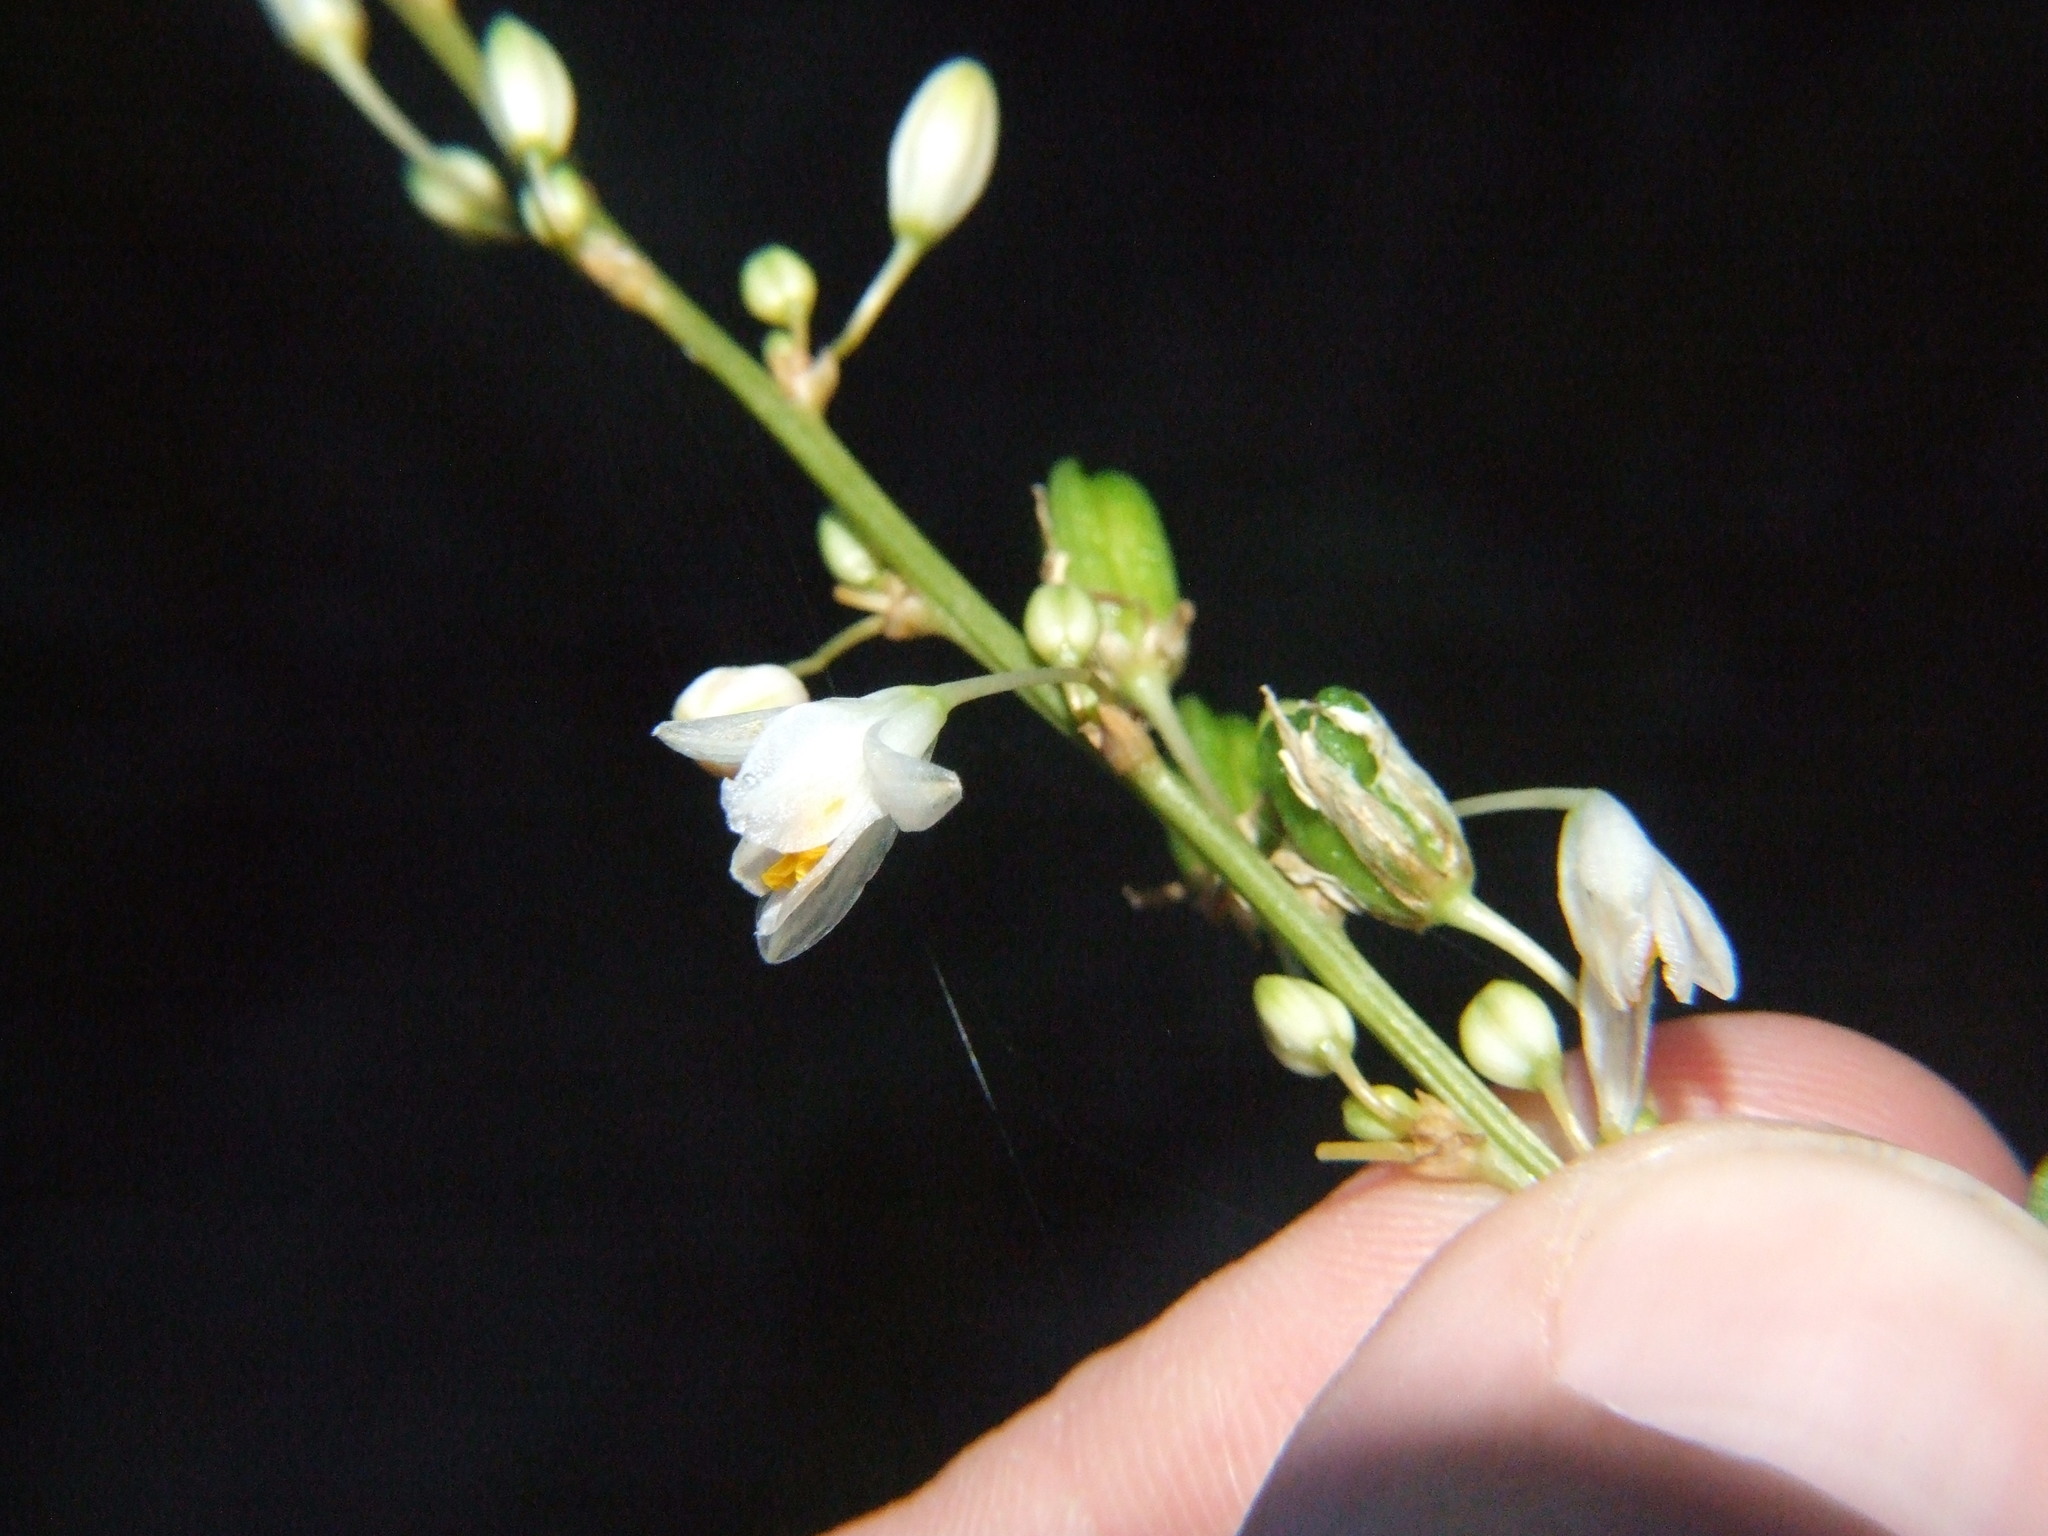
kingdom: Plantae
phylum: Tracheophyta
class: Liliopsida
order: Asparagales
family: Asparagaceae
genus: Trihesperus
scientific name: Trihesperus glaucus
